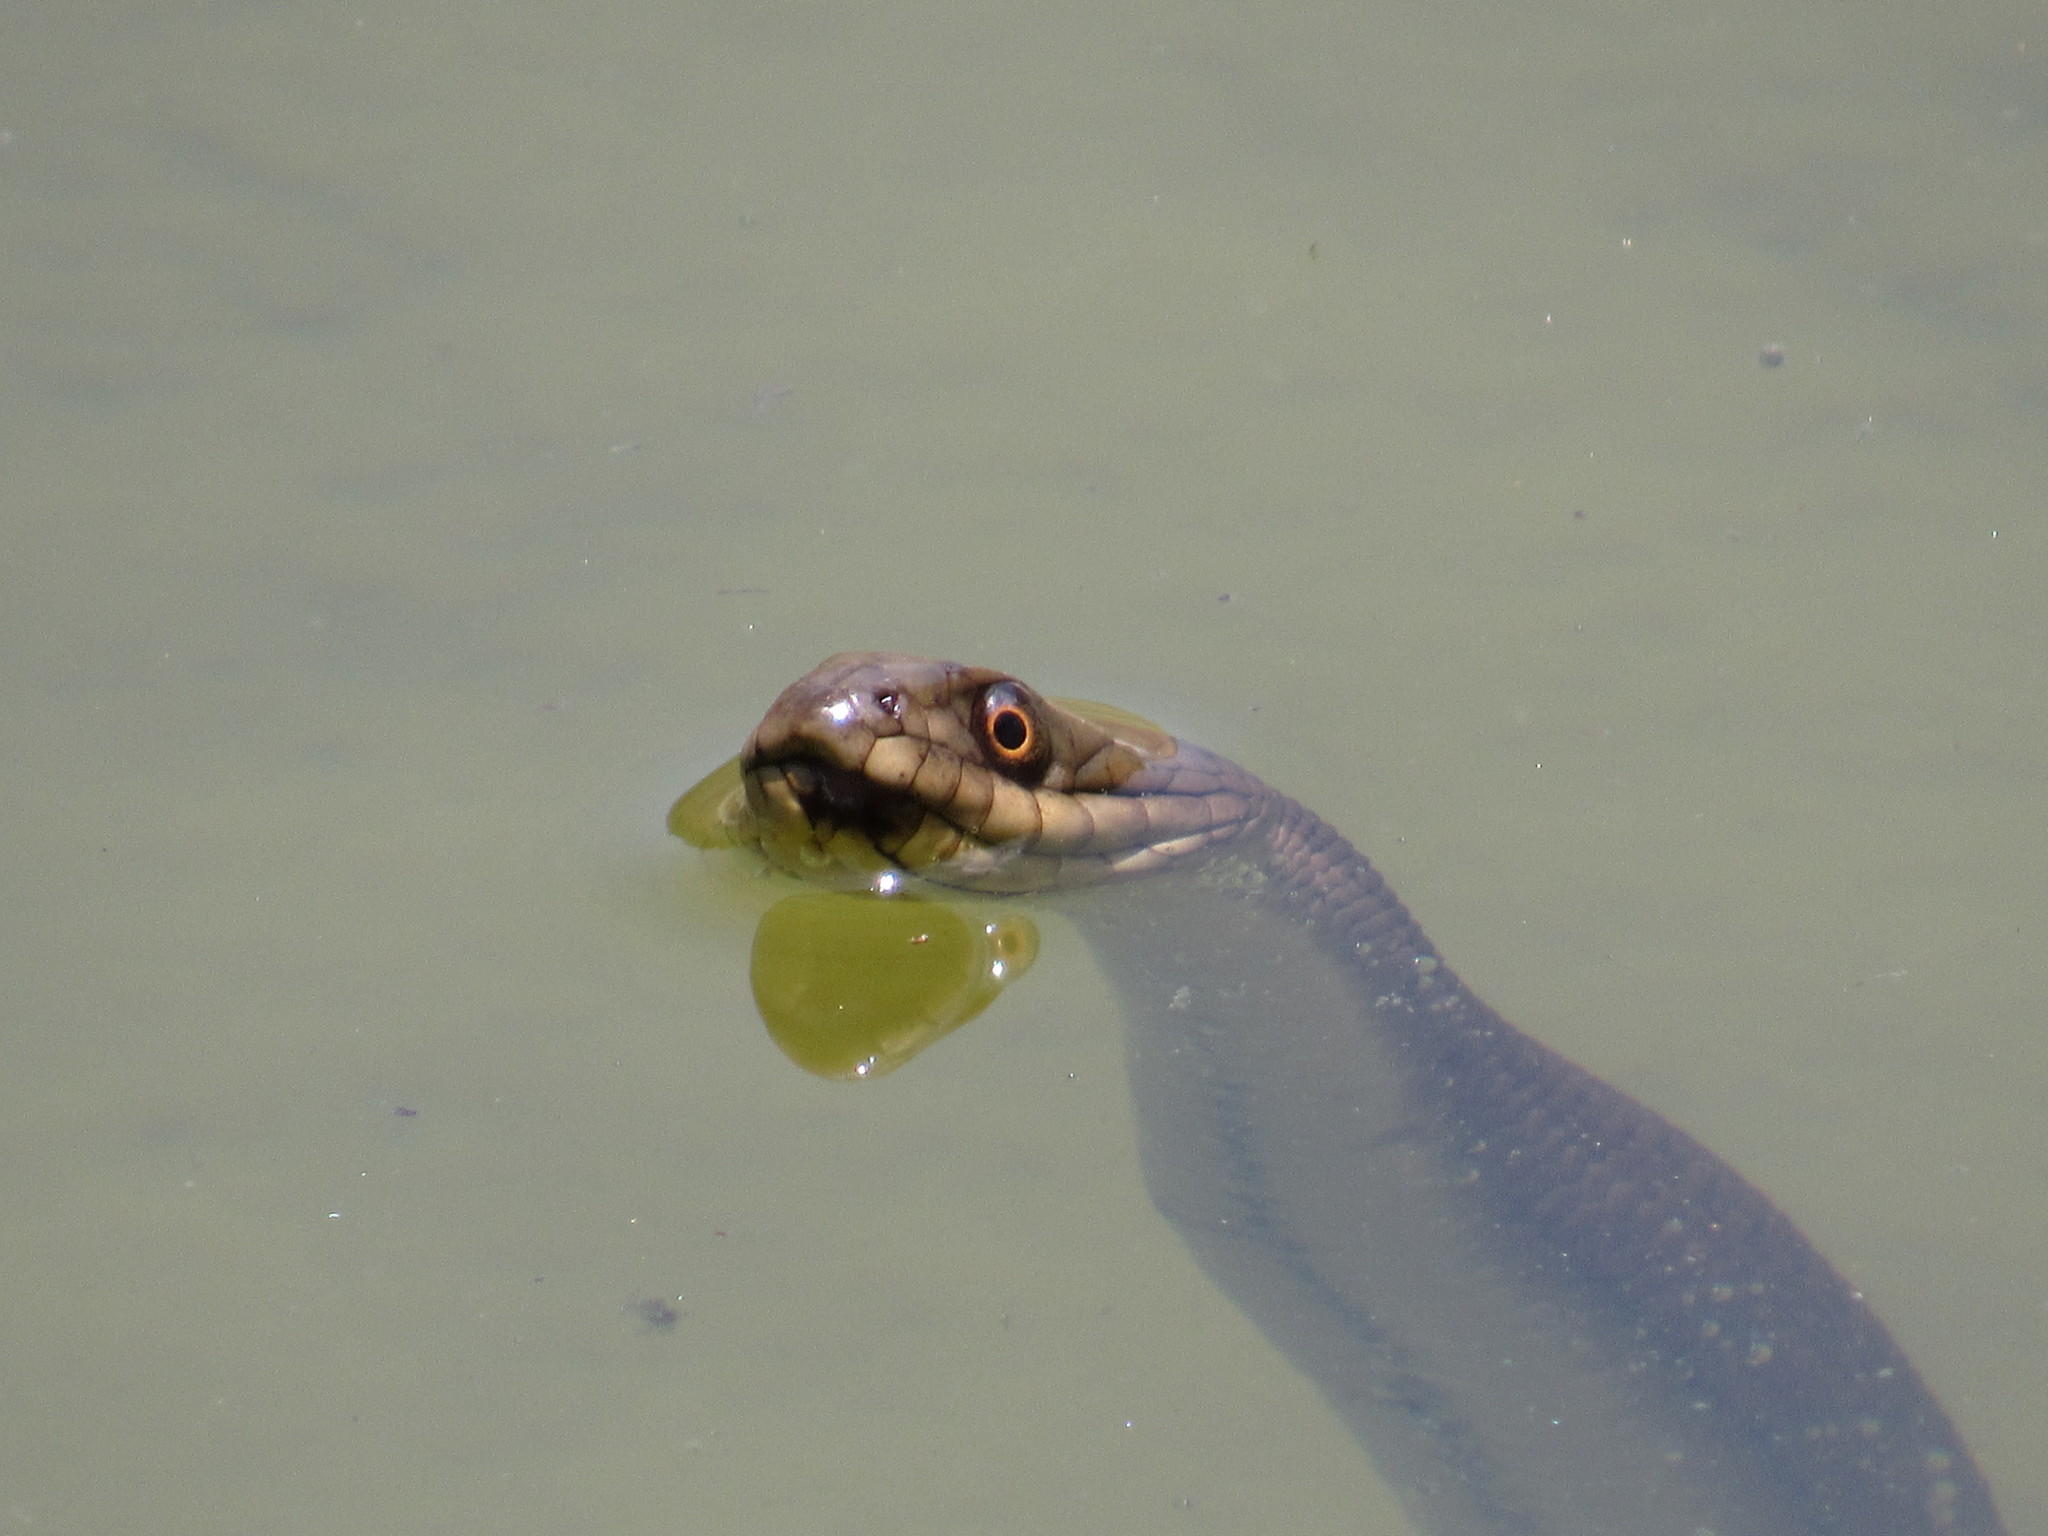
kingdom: Animalia
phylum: Chordata
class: Squamata
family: Colubridae
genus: Thamnophis
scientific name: Thamnophis melanogaster
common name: Blackbelly garter snake
